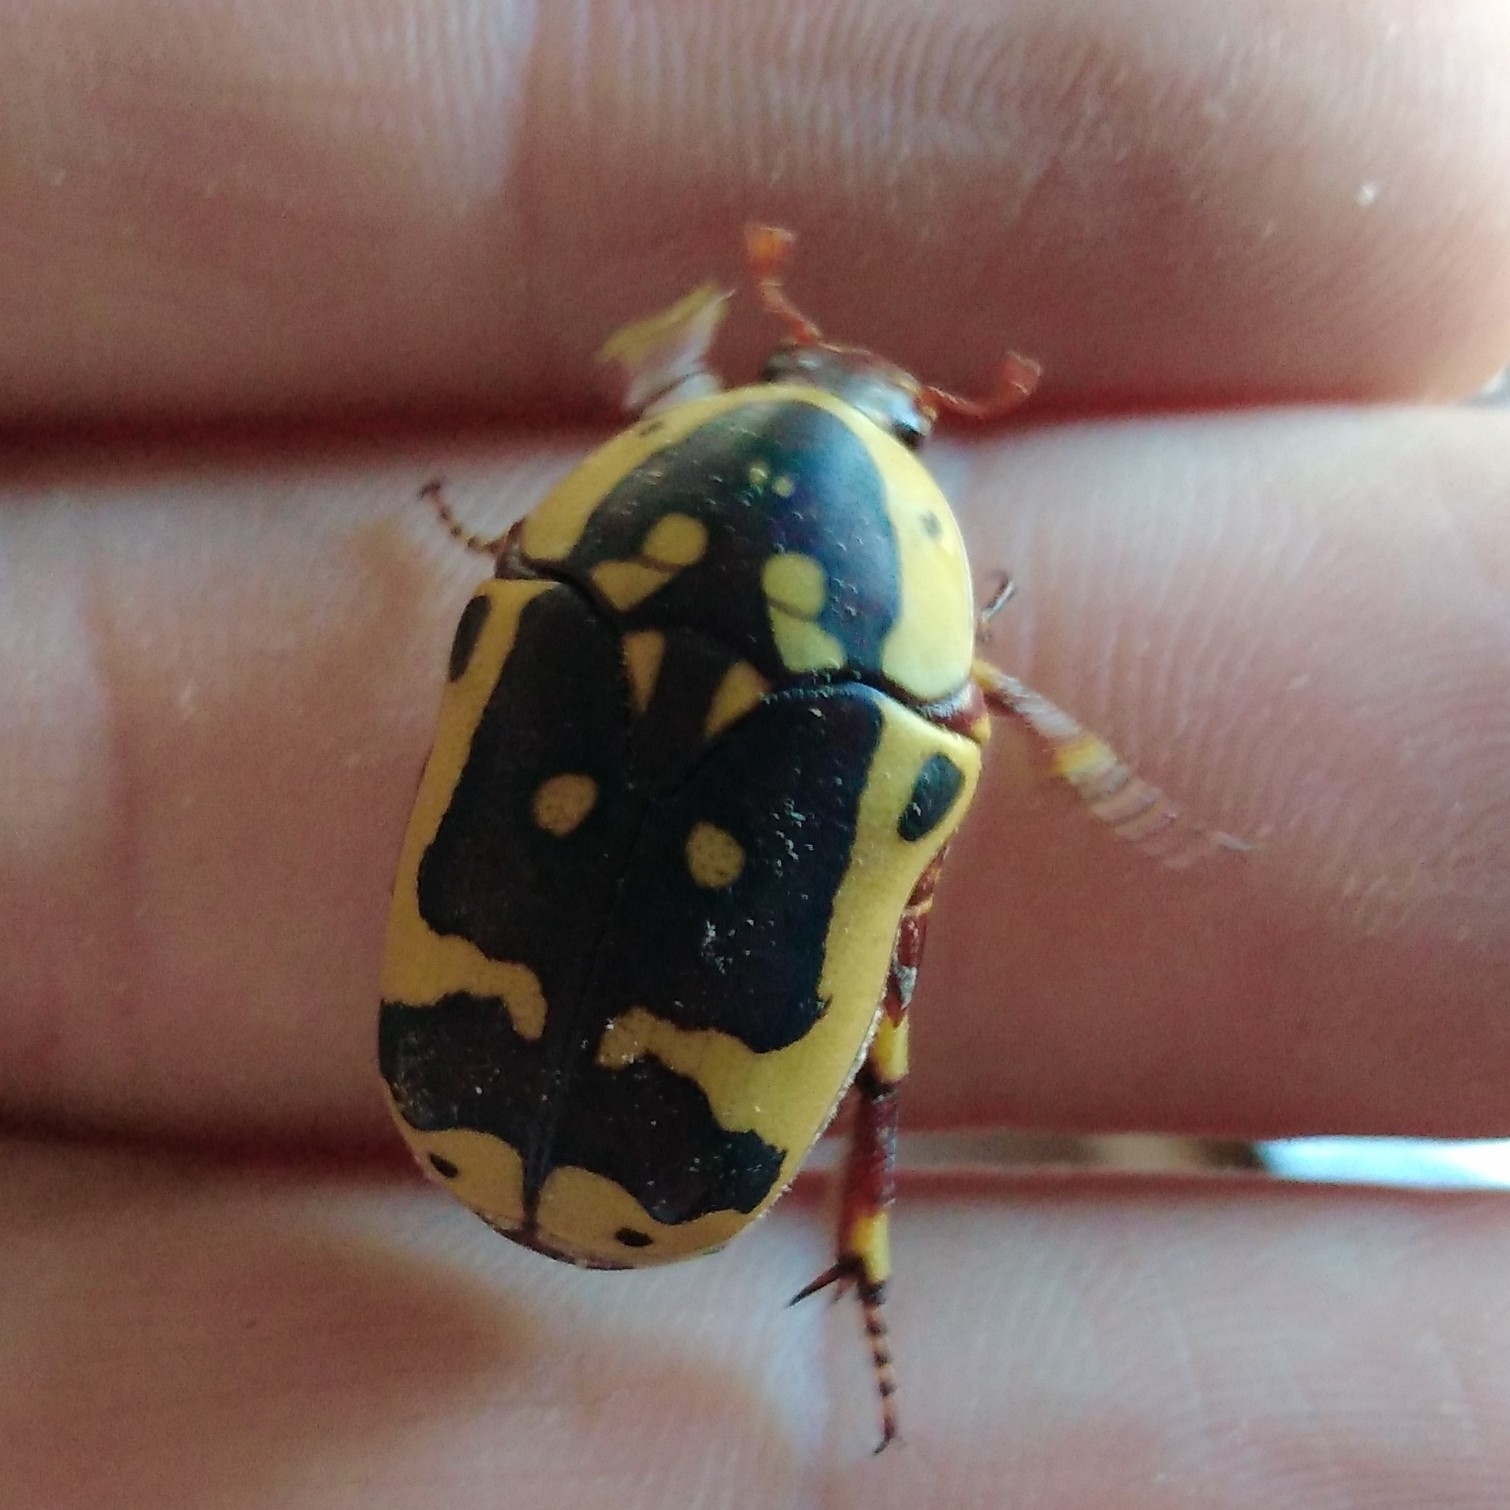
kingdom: Animalia
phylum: Arthropoda
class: Insecta
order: Coleoptera
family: Scarabaeidae
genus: Pachnoda
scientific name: Pachnoda sinuata
